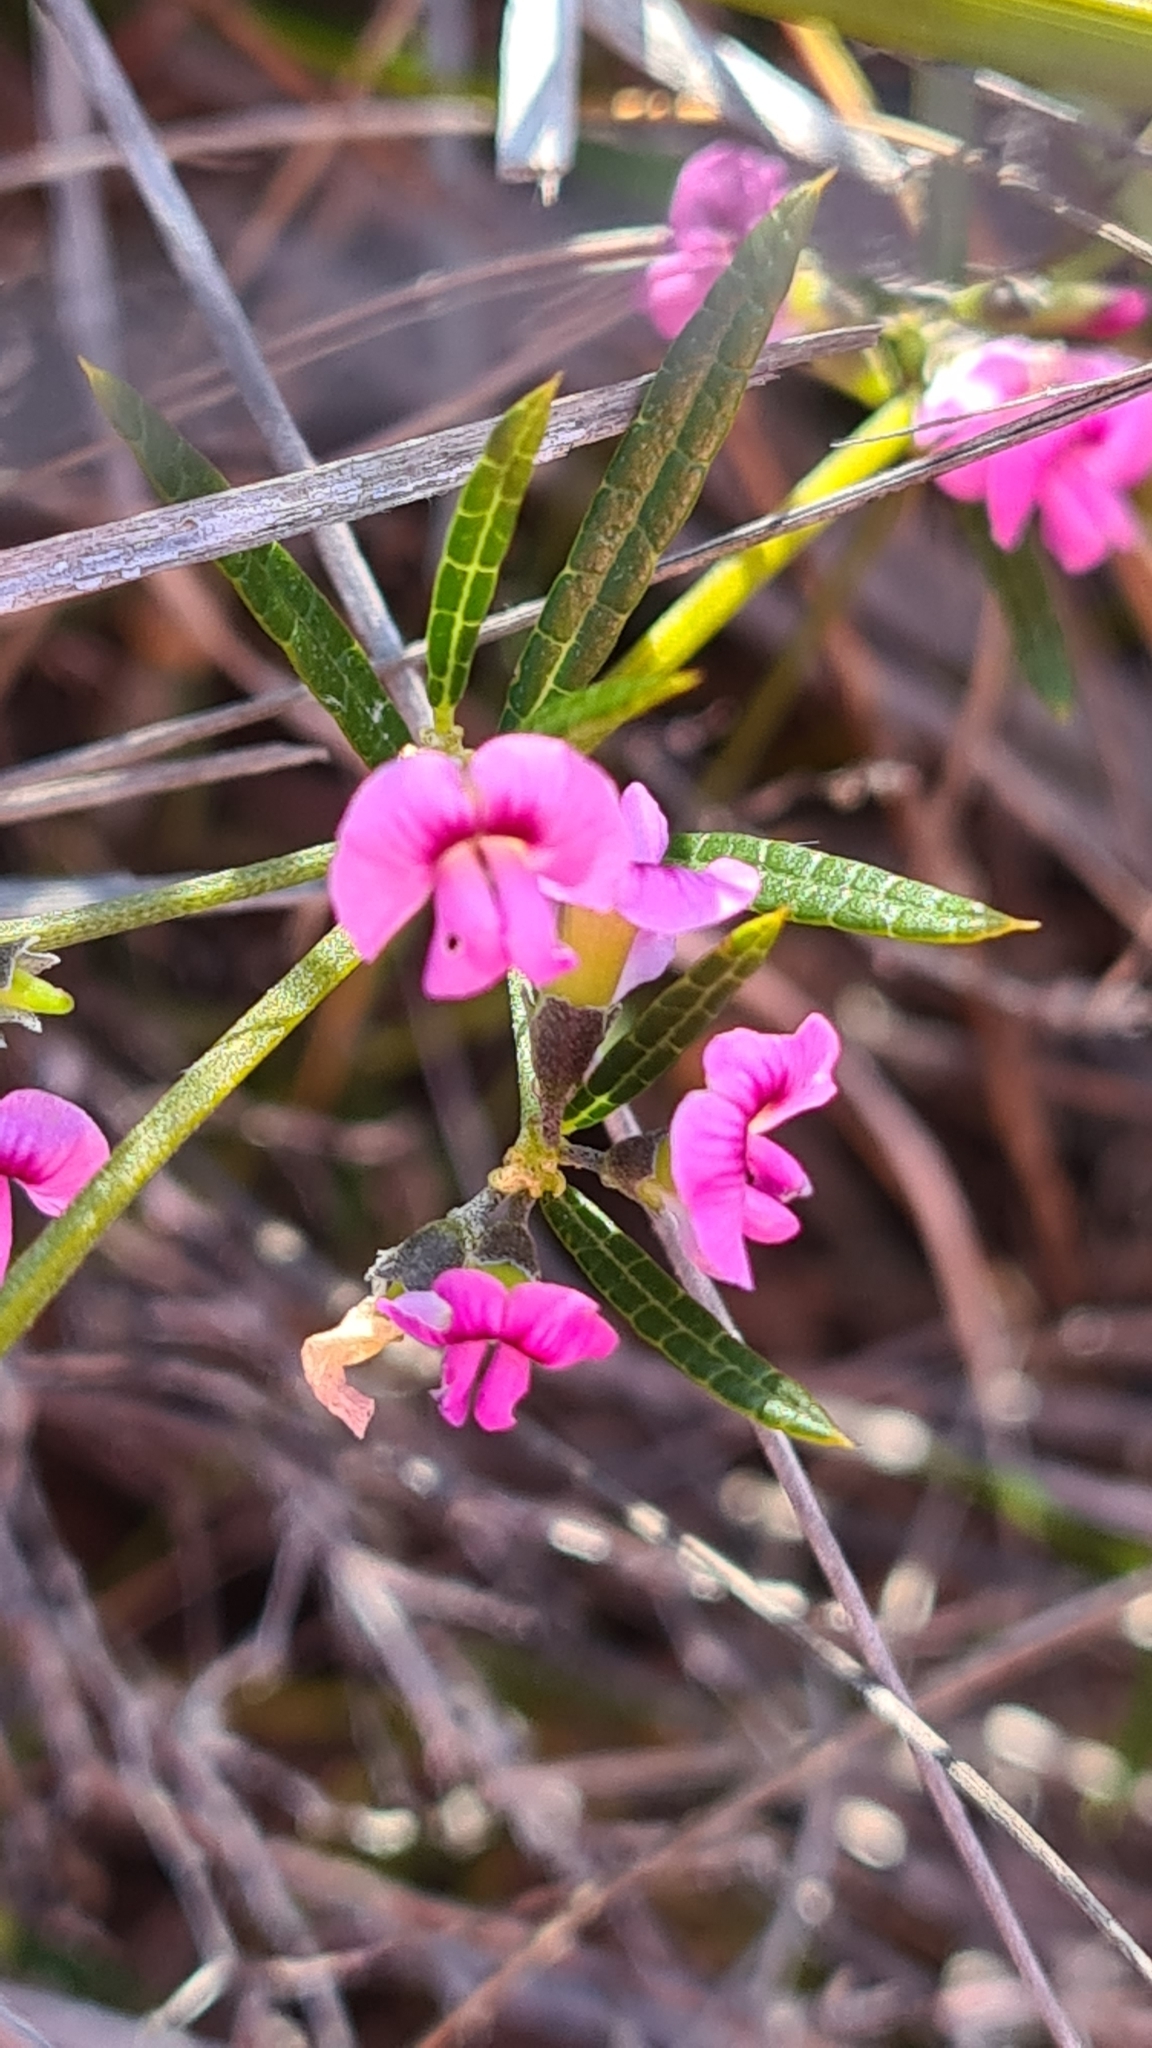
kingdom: Plantae
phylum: Tracheophyta
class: Magnoliopsida
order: Fabales
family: Fabaceae
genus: Mirbelia
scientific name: Mirbelia rubiifolia
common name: Heathy mirbelia
